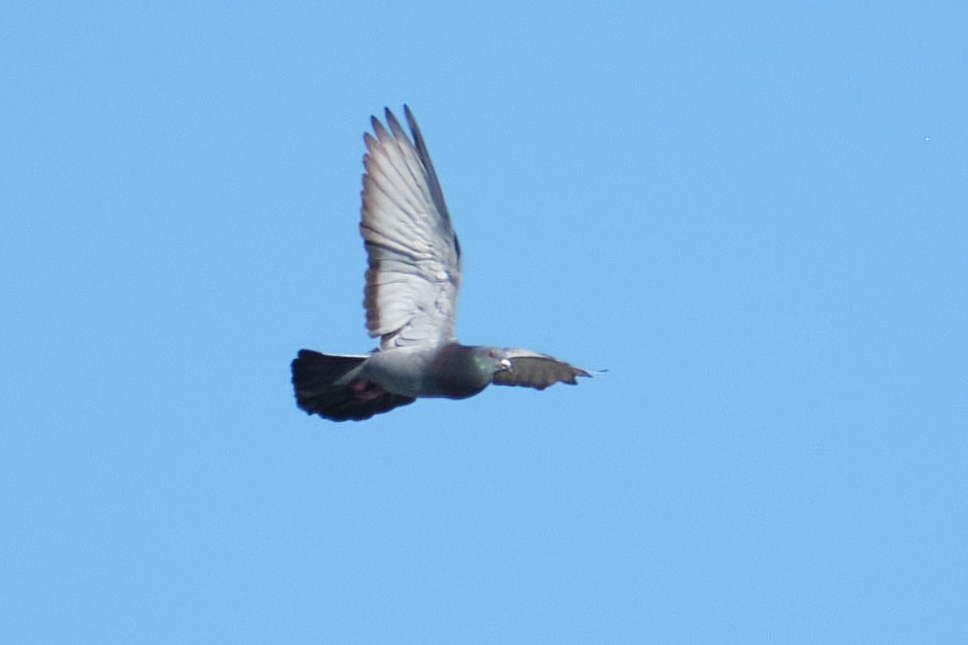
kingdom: Animalia
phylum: Chordata
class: Aves
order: Columbiformes
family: Columbidae
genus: Columba
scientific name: Columba livia
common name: Rock pigeon
